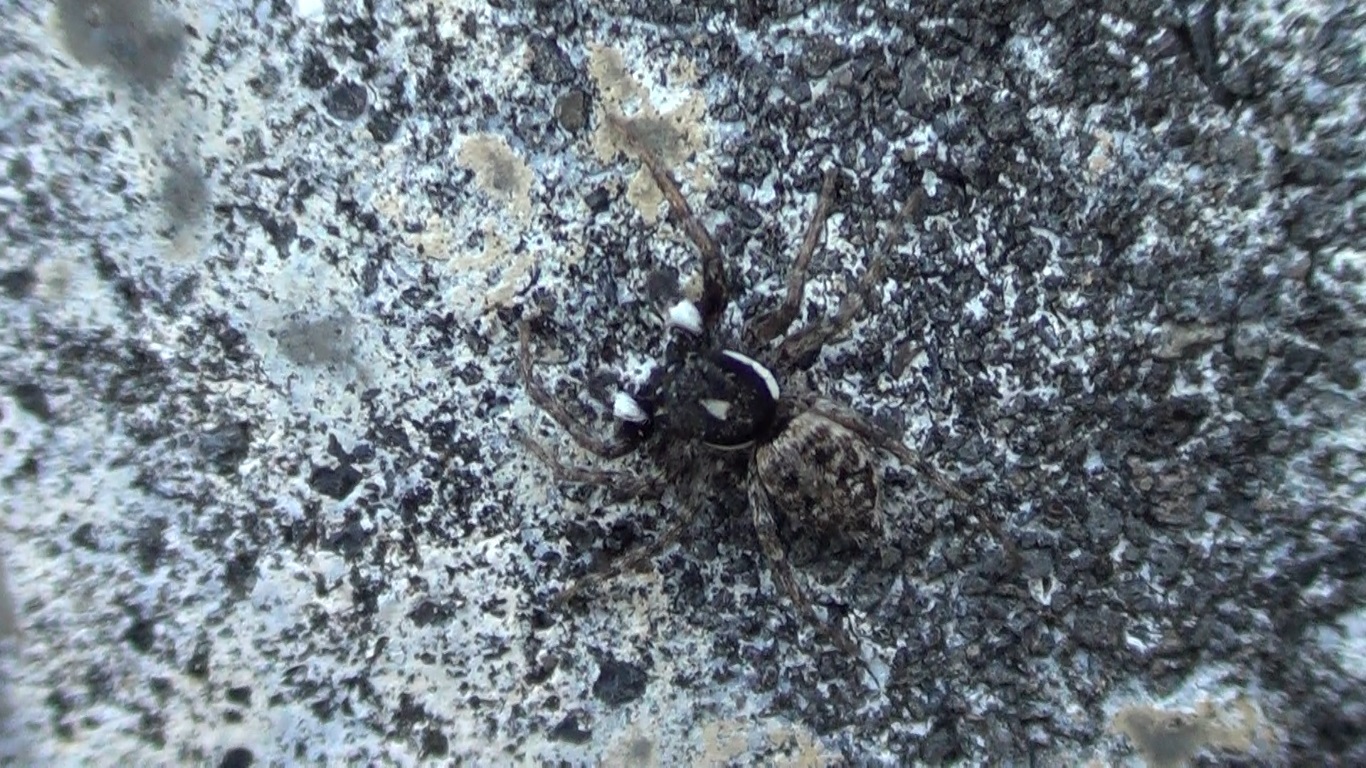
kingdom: Animalia
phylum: Arthropoda
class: Arachnida
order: Araneae
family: Salticidae
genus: Menemerus
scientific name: Menemerus semilimbatus
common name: Jumping spider
